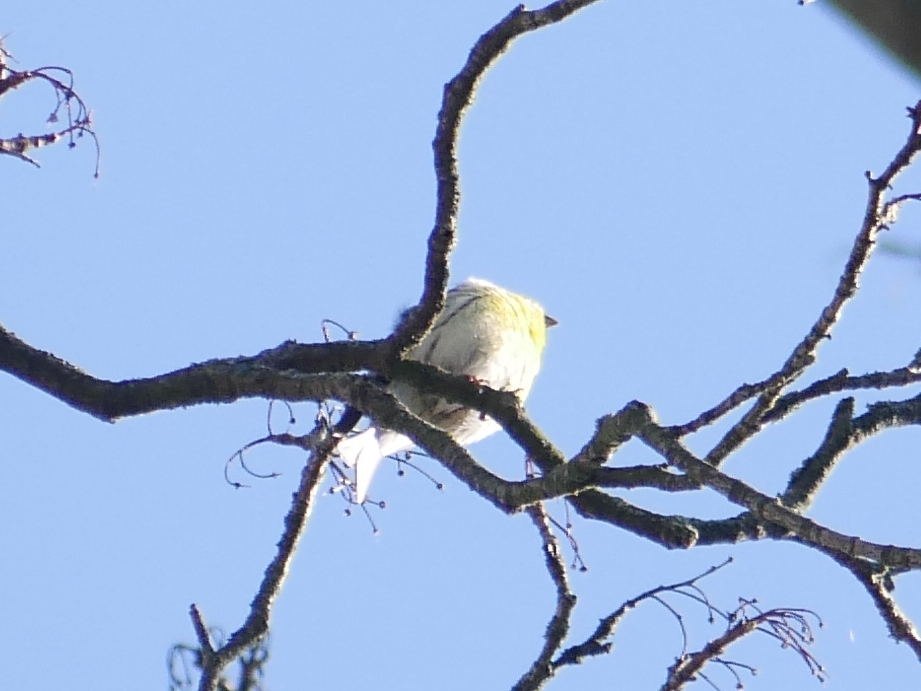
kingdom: Animalia
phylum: Chordata
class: Aves
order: Passeriformes
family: Fringillidae
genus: Serinus
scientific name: Serinus serinus
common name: European serin
